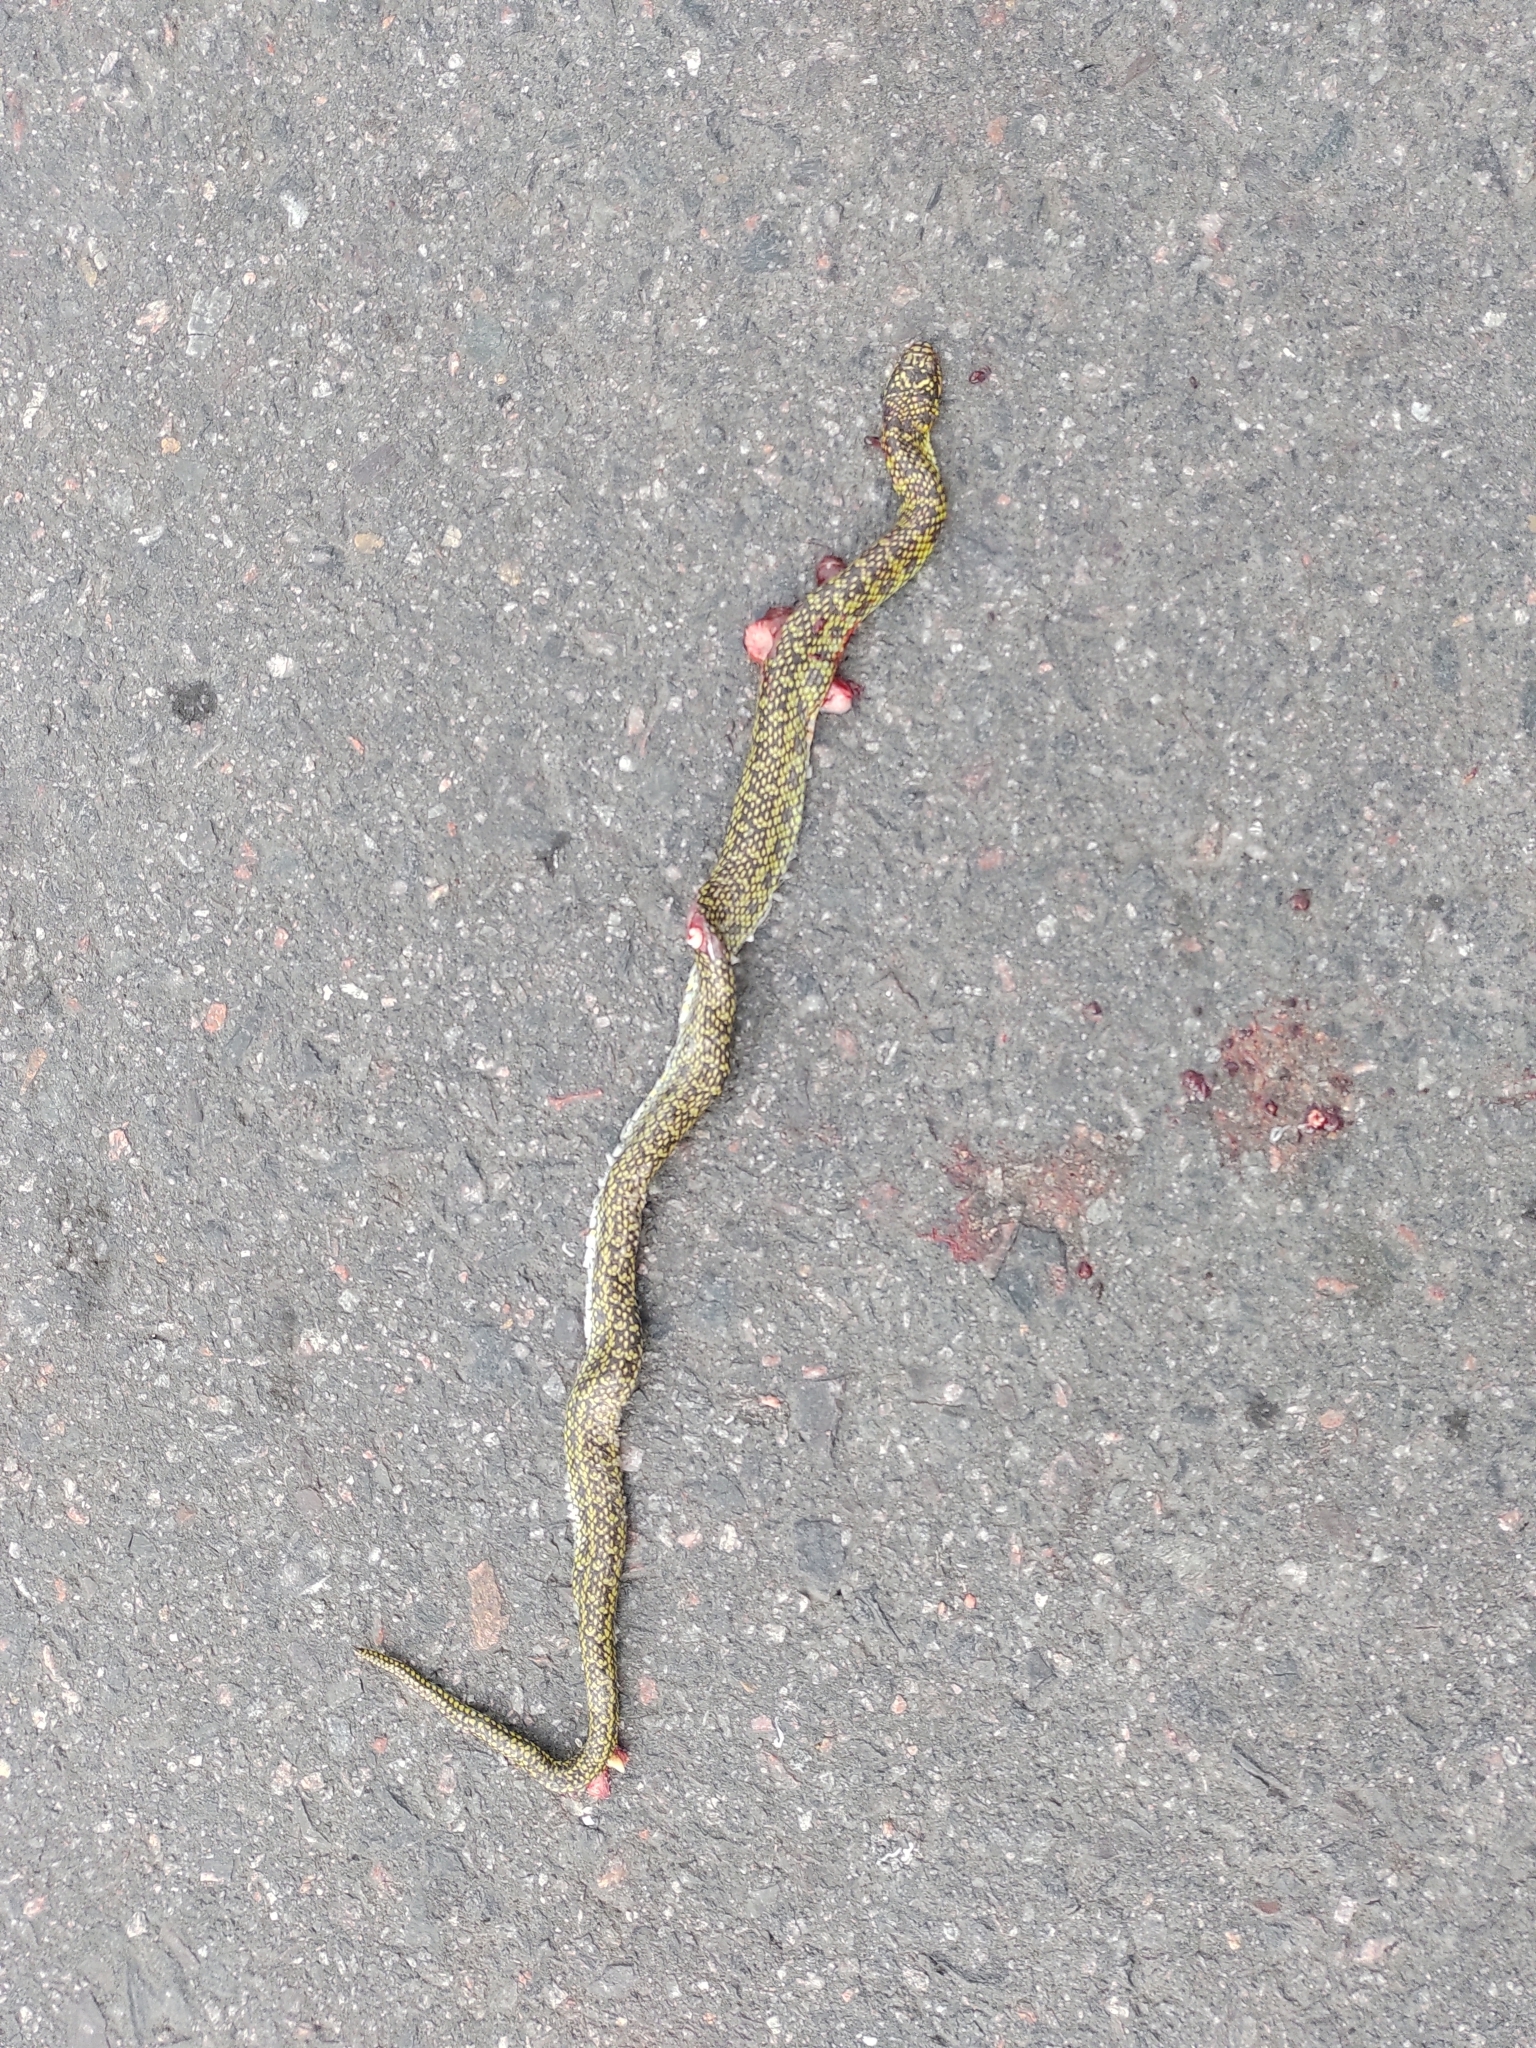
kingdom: Animalia
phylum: Chordata
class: Squamata
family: Colubridae
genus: Erythrolamprus
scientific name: Erythrolamprus poecilogyrus
